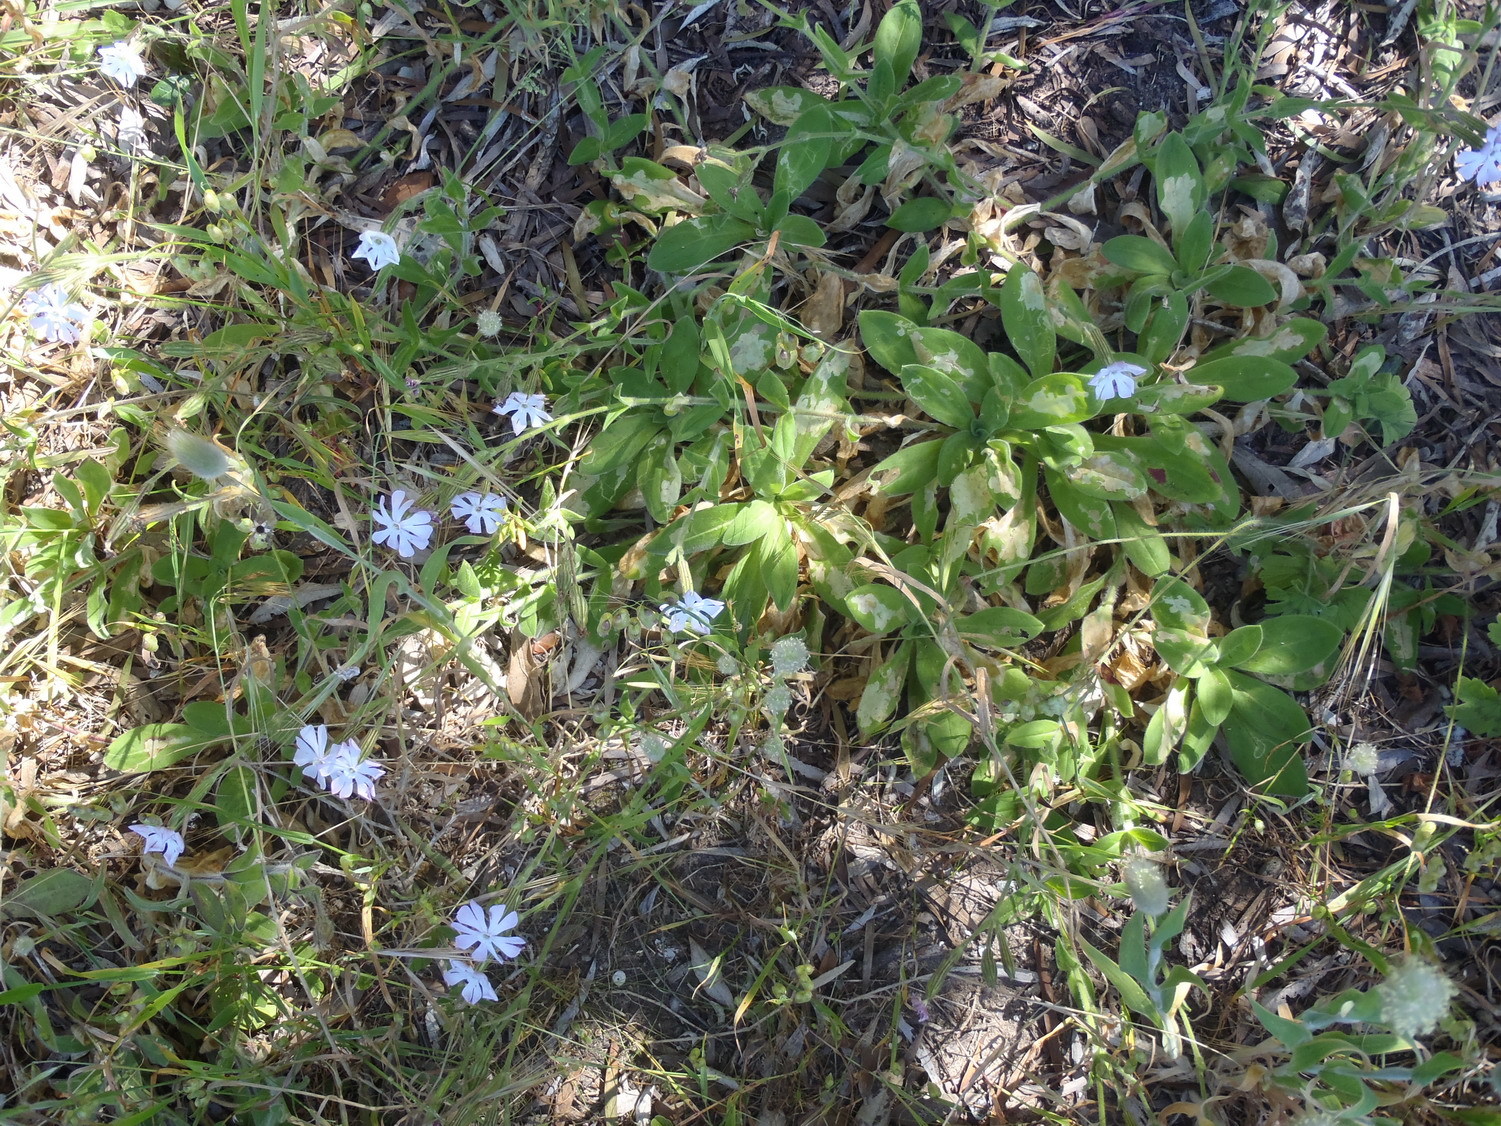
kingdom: Plantae
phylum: Tracheophyta
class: Magnoliopsida
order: Caryophyllales
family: Caryophyllaceae
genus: Silene
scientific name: Silene undulata
